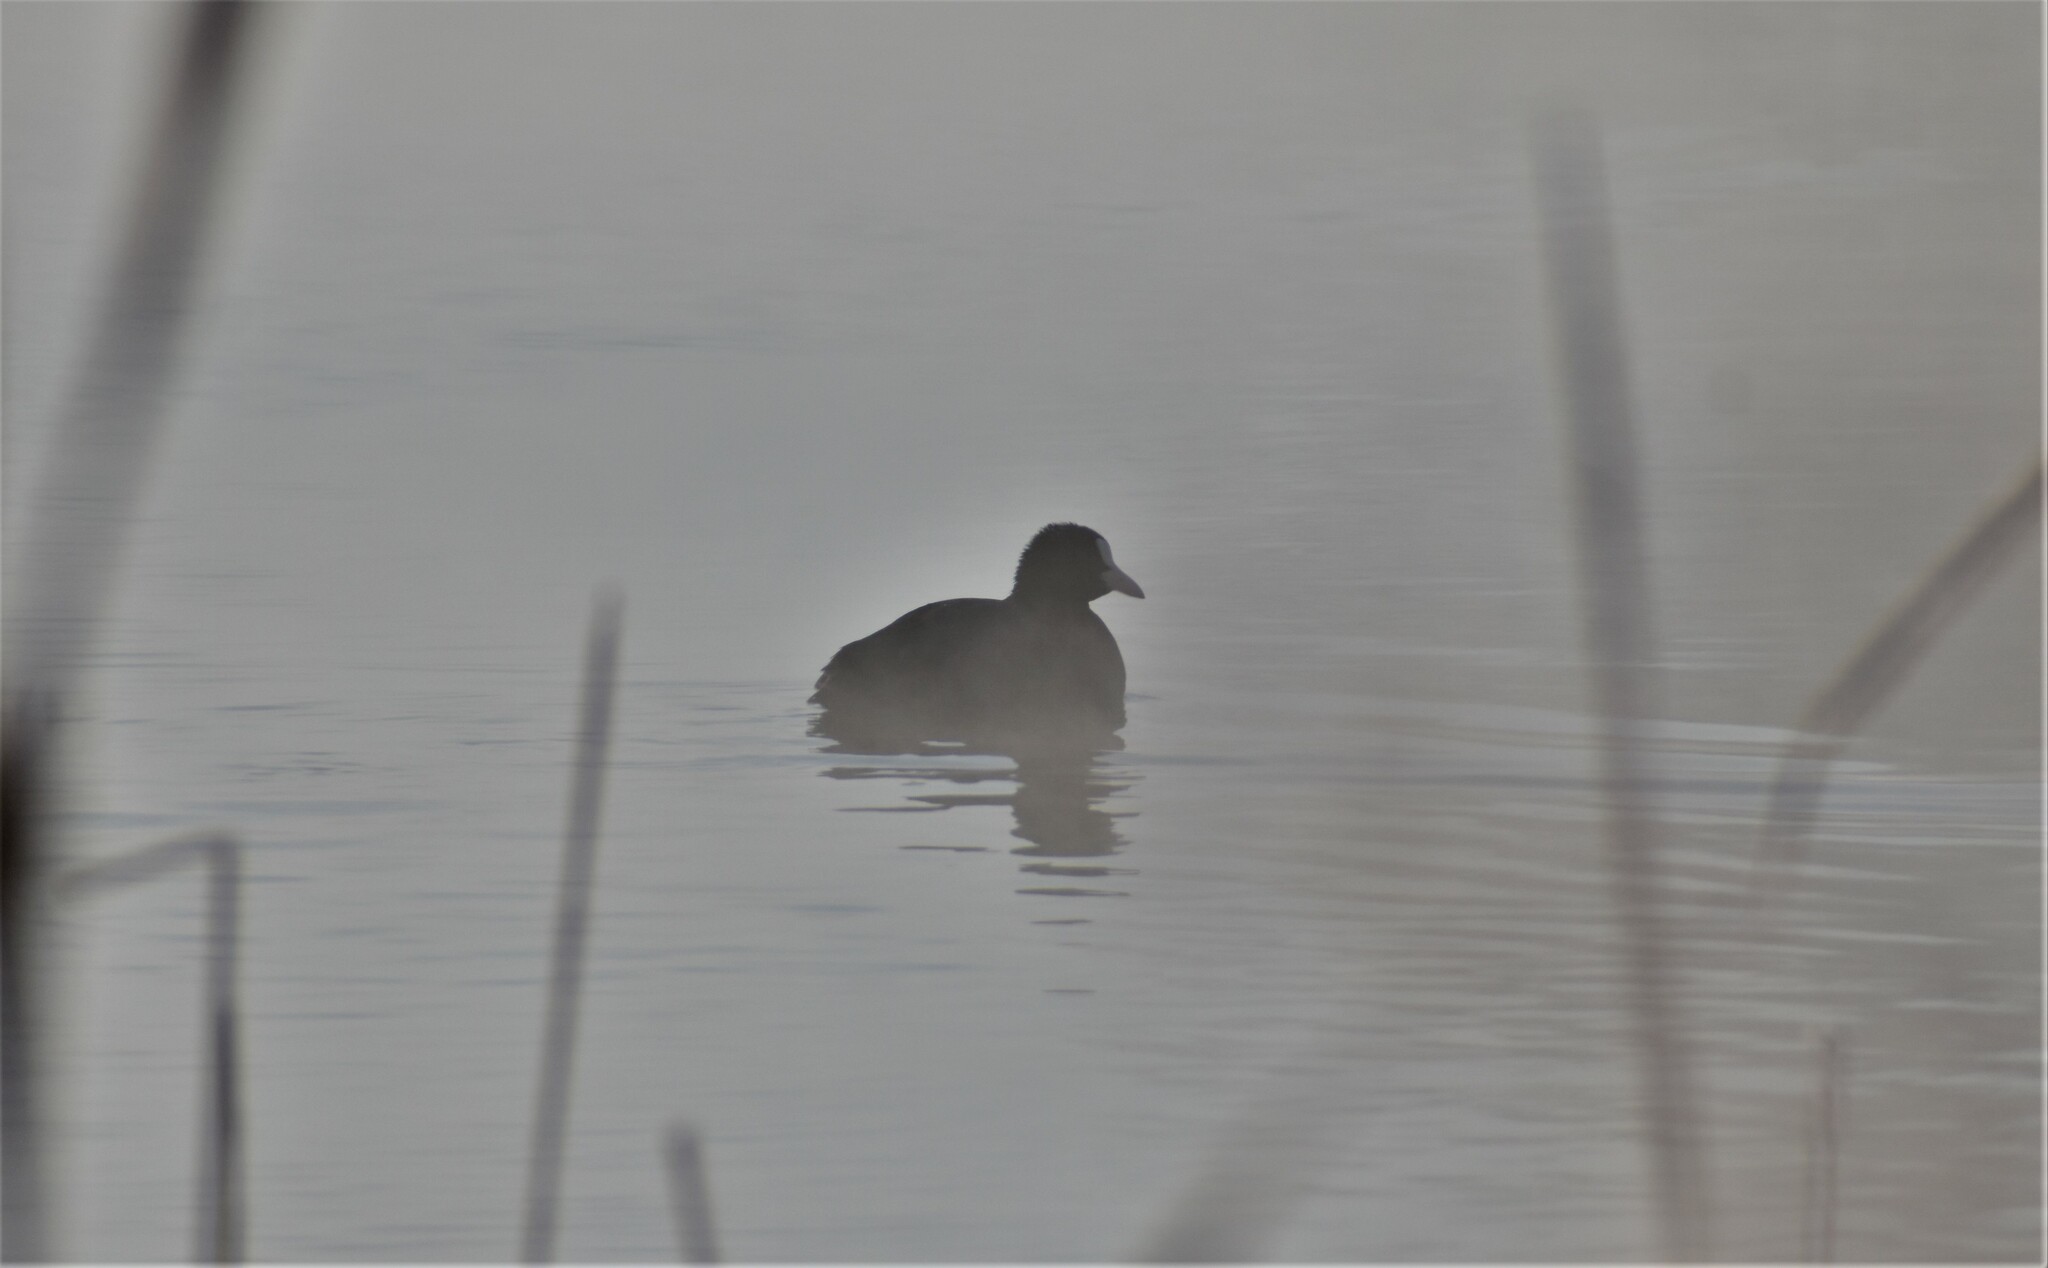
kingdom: Animalia
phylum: Chordata
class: Aves
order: Gruiformes
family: Rallidae
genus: Fulica
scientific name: Fulica atra
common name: Eurasian coot
